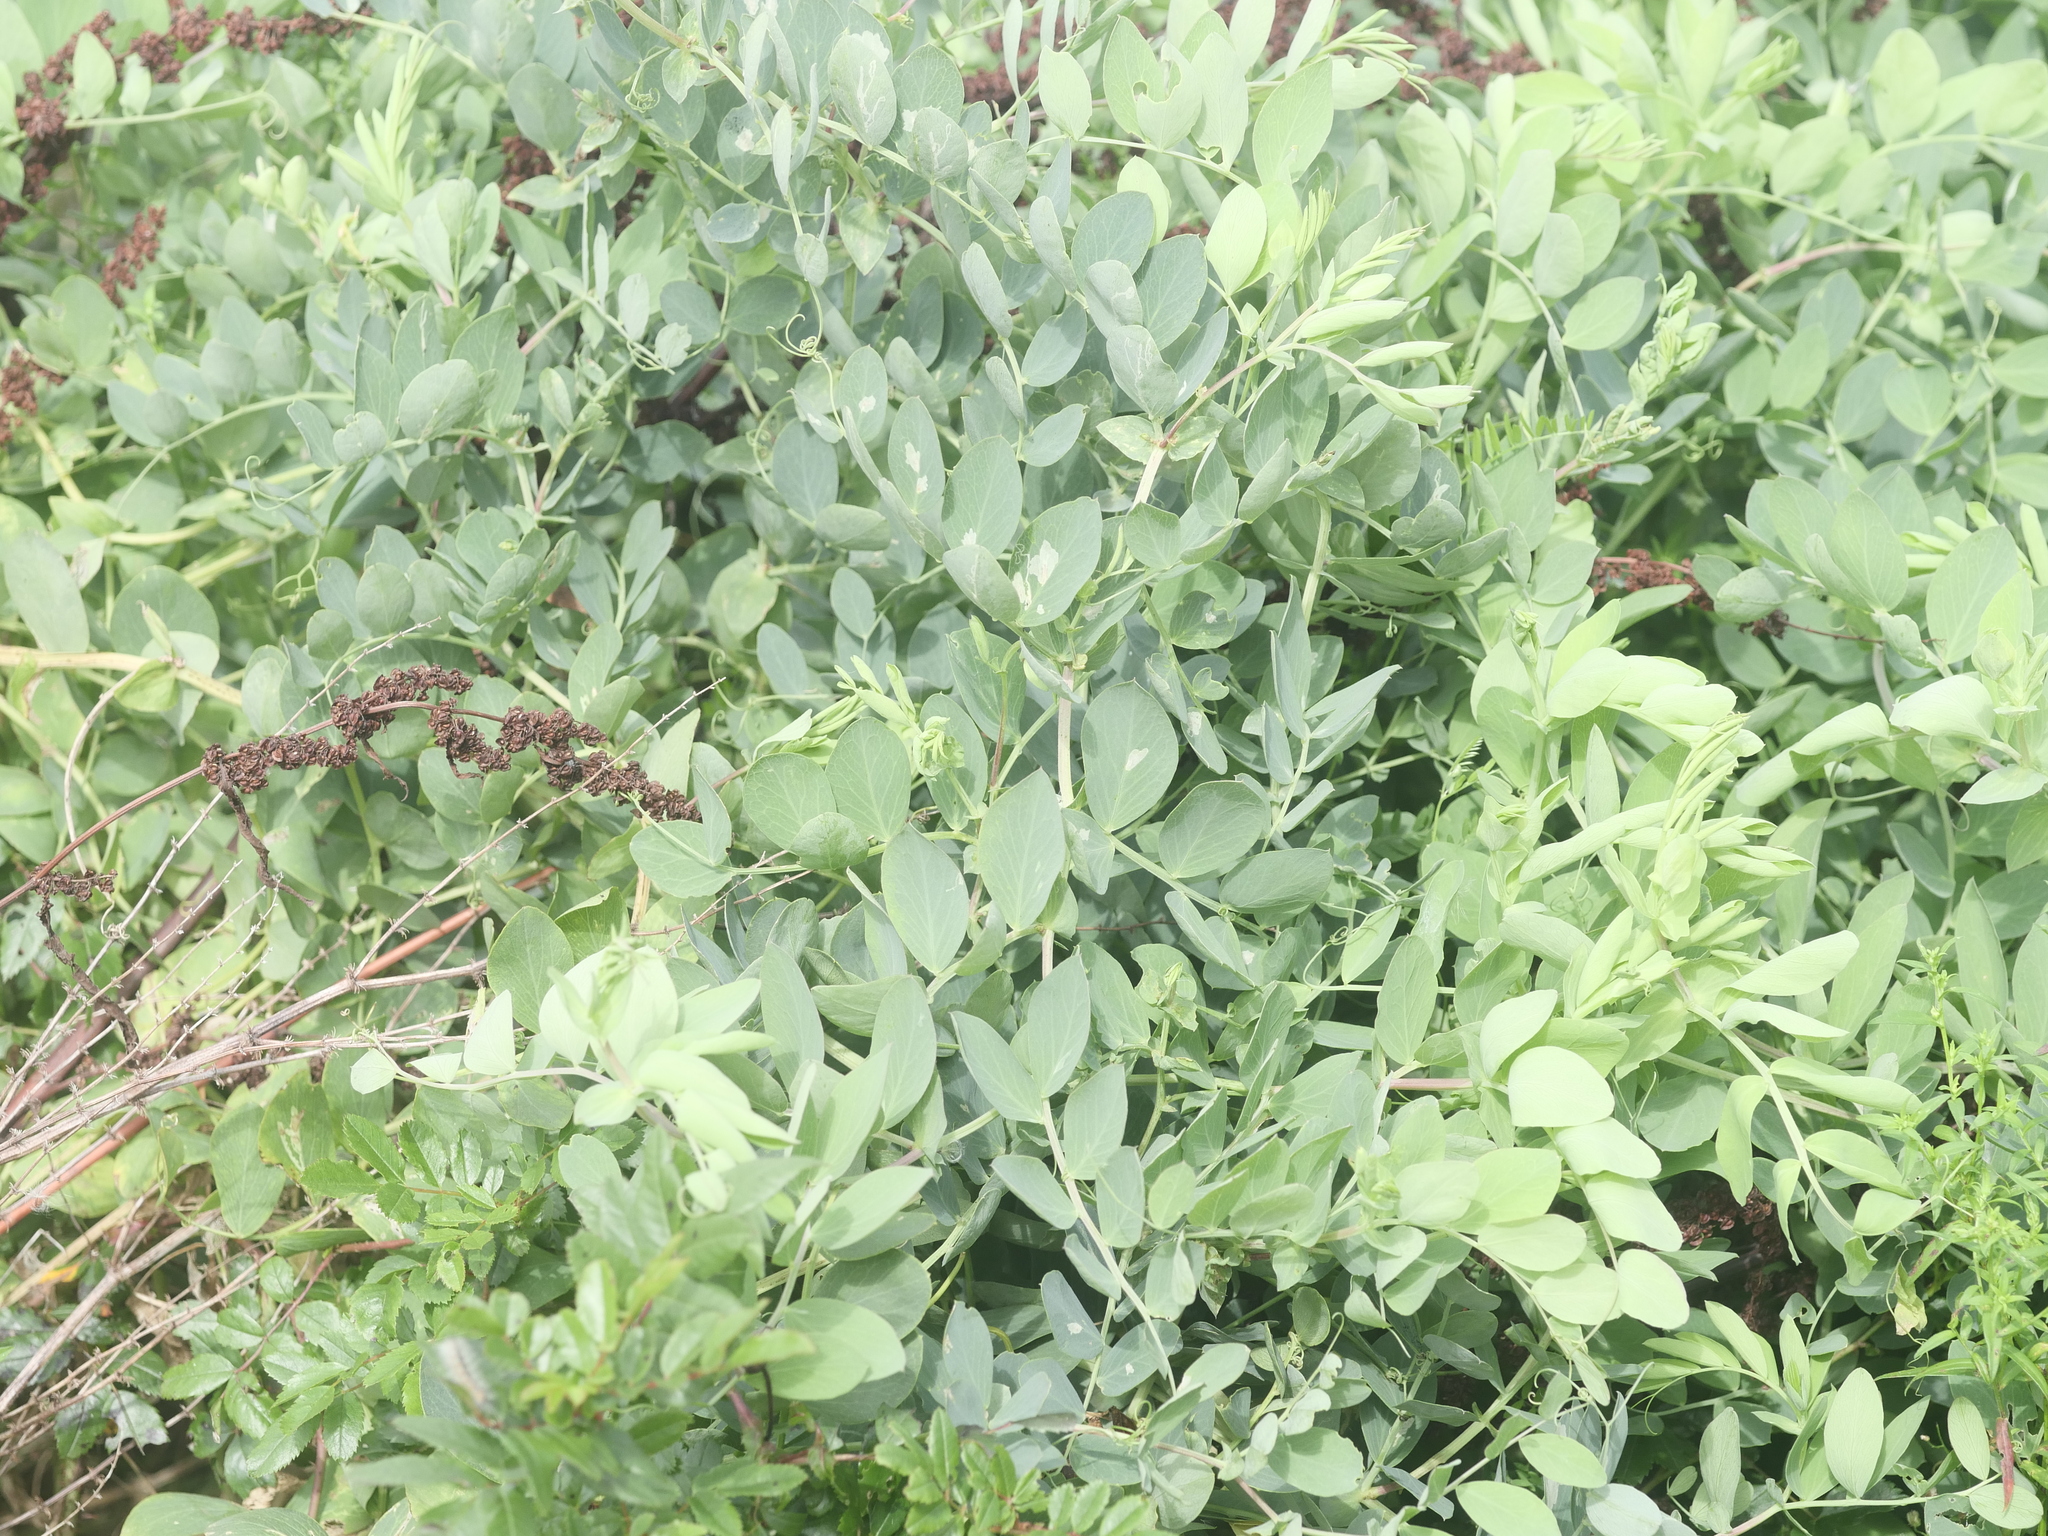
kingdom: Plantae
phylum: Tracheophyta
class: Magnoliopsida
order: Fabales
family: Fabaceae
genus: Lathyrus
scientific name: Lathyrus japonicus
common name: Sea pea
